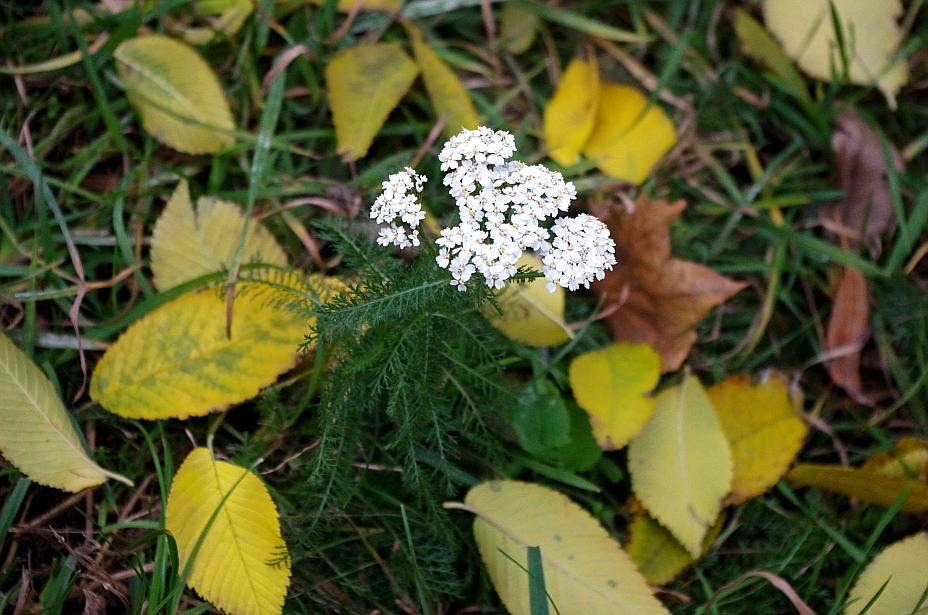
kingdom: Plantae
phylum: Tracheophyta
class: Magnoliopsida
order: Asterales
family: Asteraceae
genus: Achillea
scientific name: Achillea millefolium
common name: Yarrow
